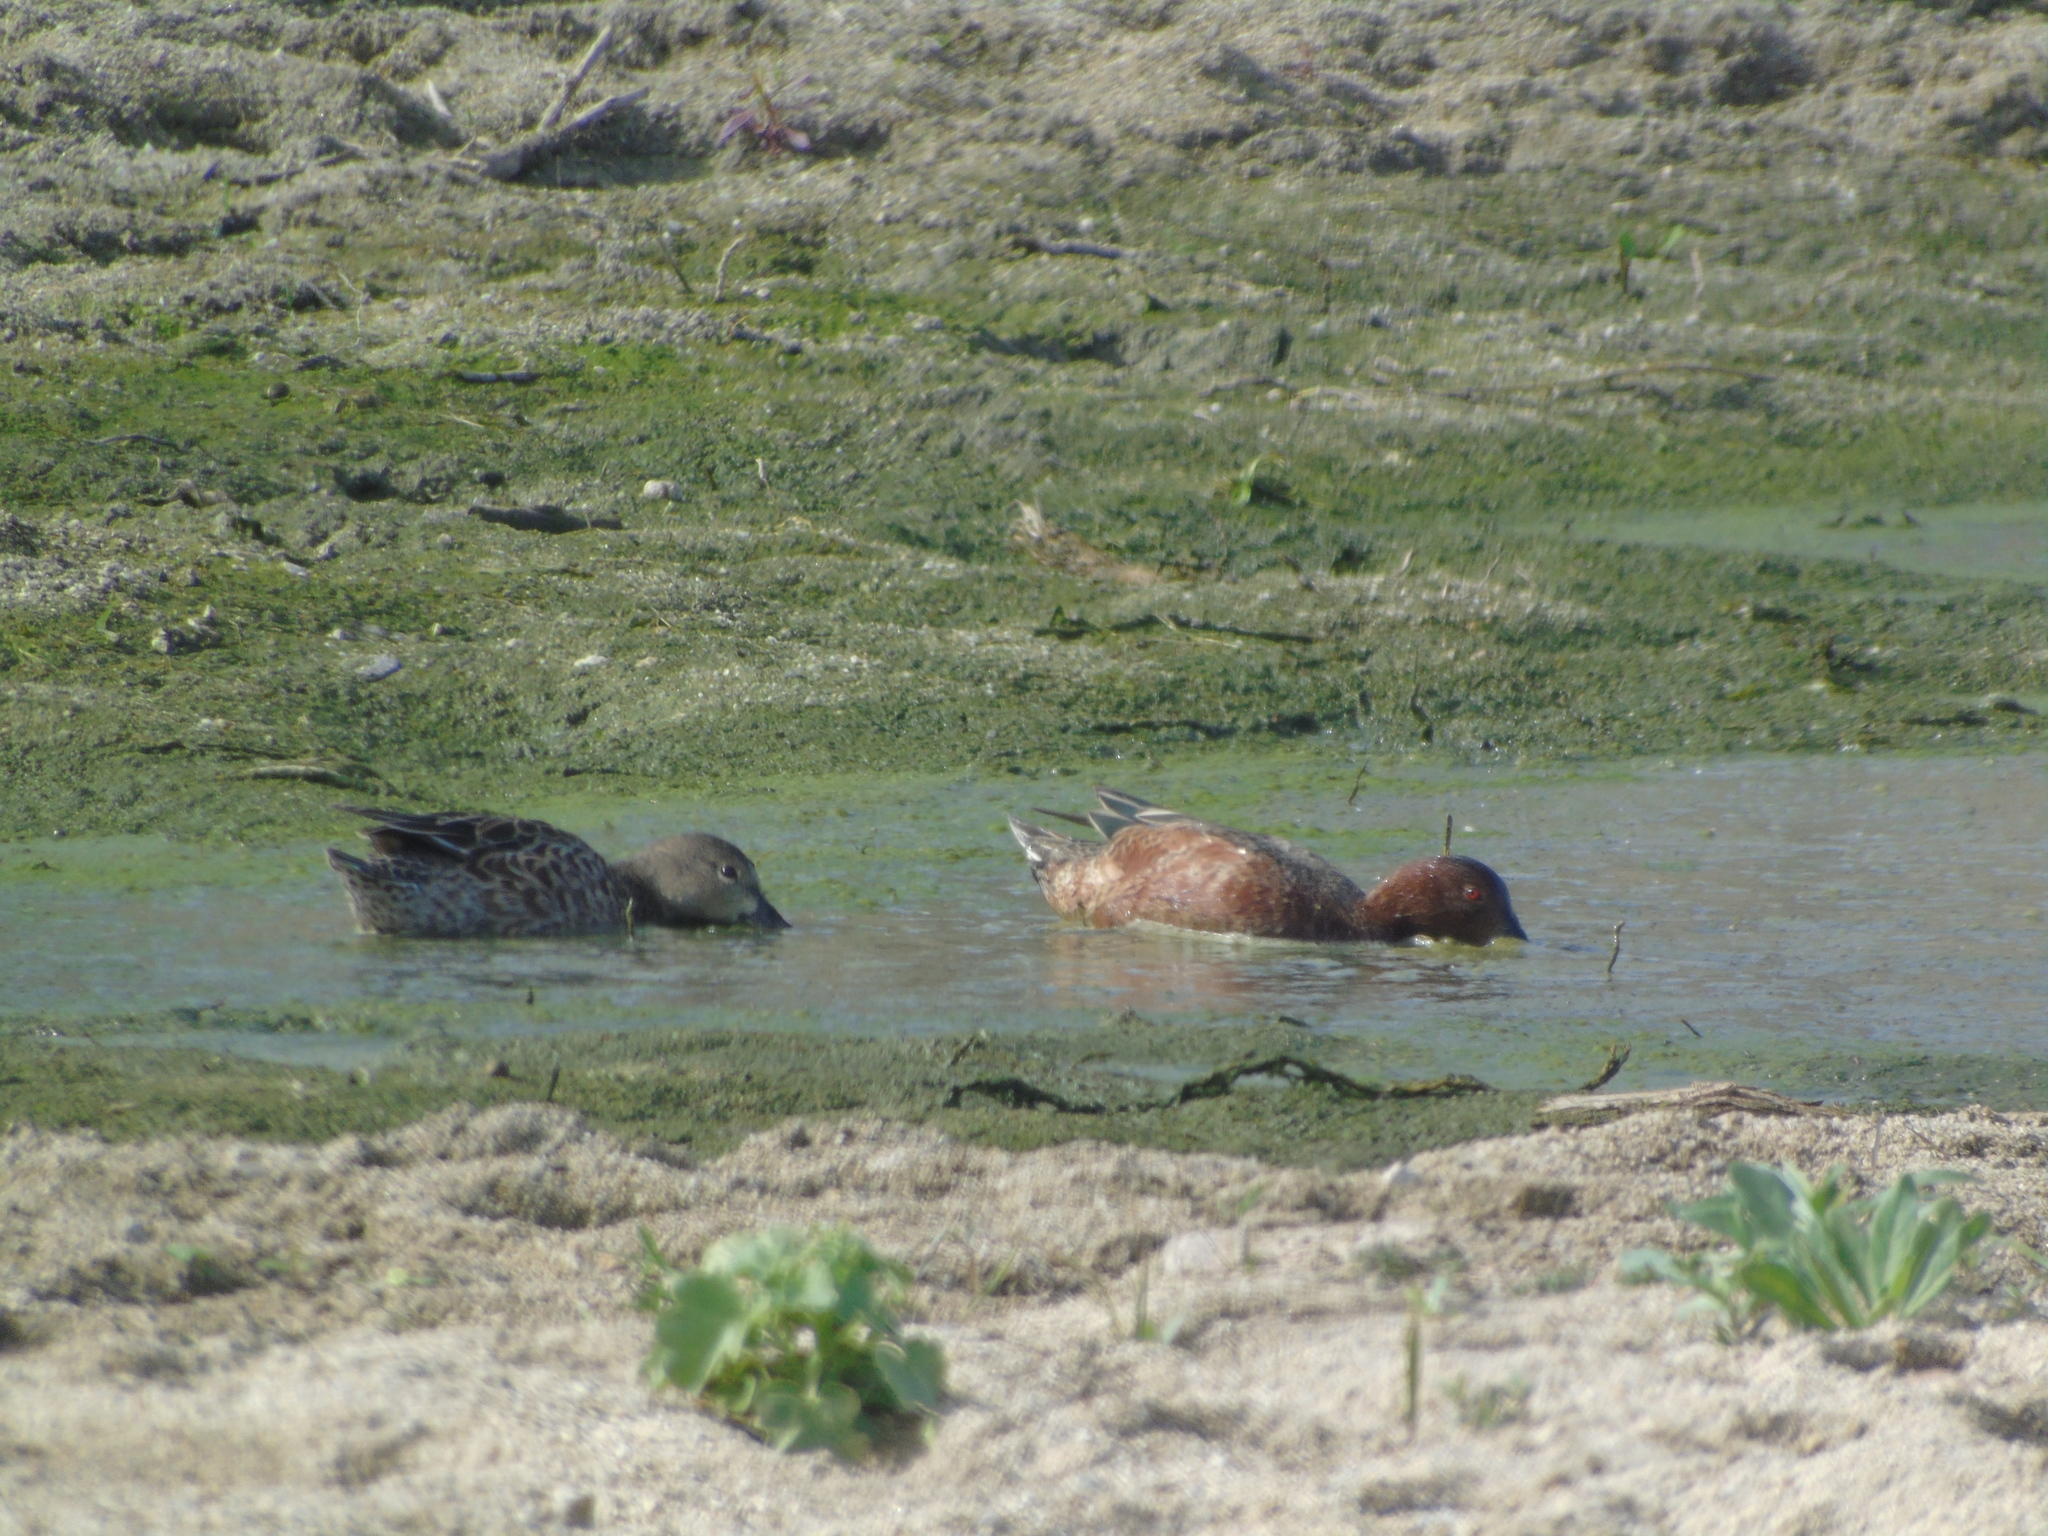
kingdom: Animalia
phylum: Chordata
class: Aves
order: Anseriformes
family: Anatidae
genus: Spatula
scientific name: Spatula cyanoptera
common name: Cinnamon teal
